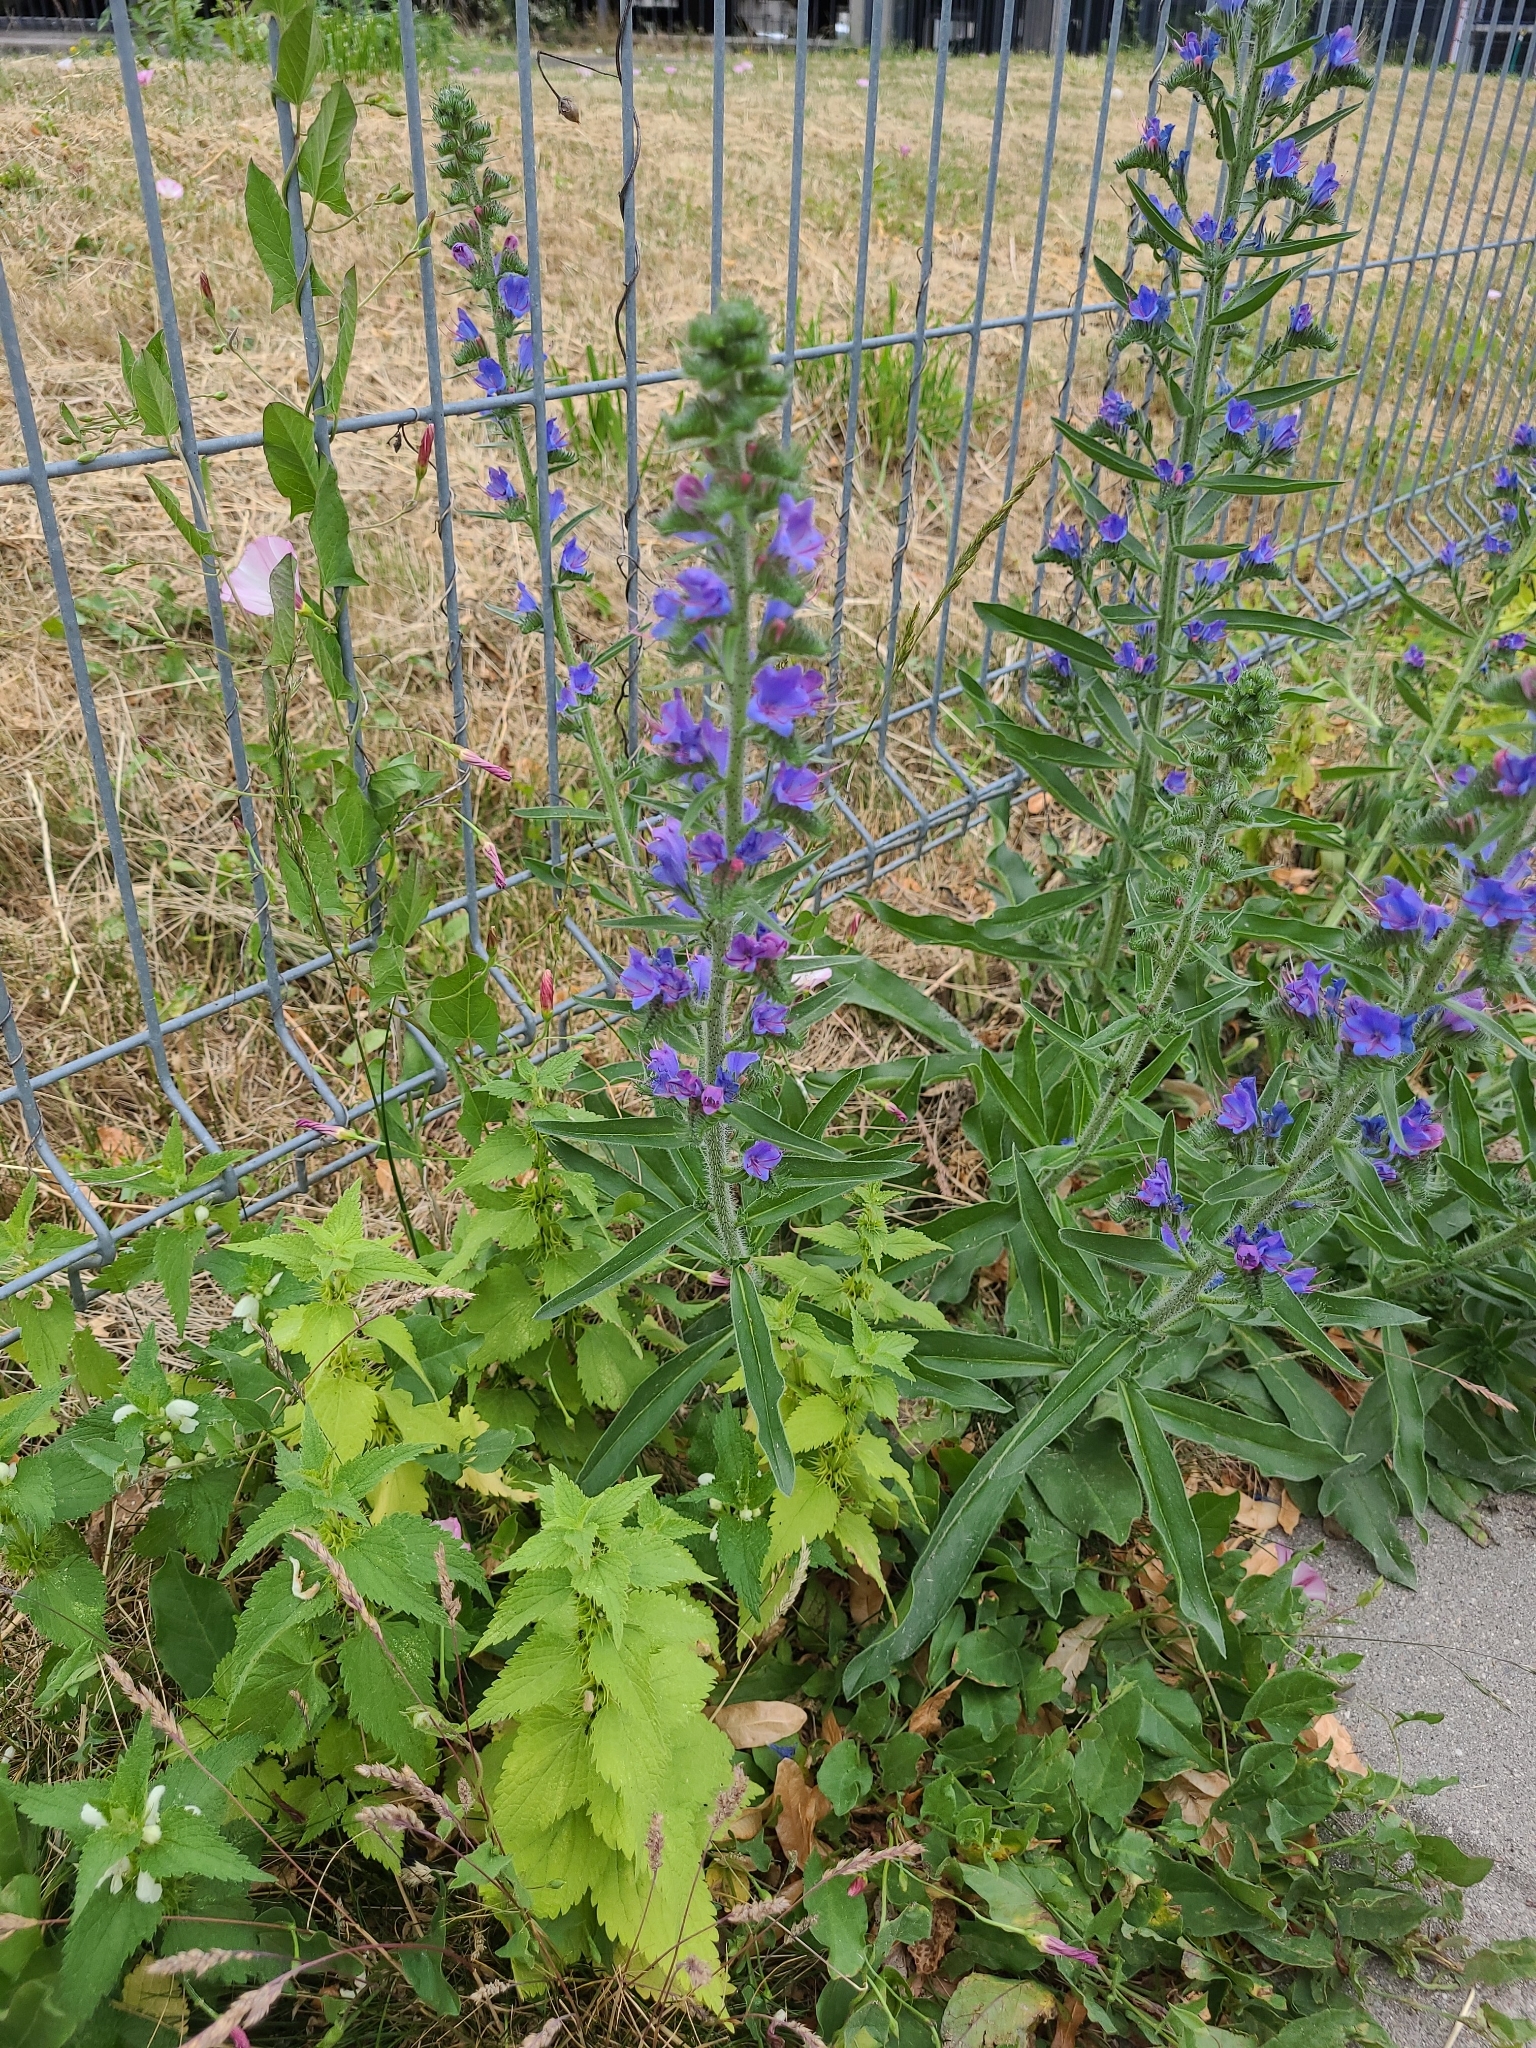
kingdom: Plantae
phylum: Tracheophyta
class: Magnoliopsida
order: Boraginales
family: Boraginaceae
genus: Echium
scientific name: Echium vulgare
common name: Common viper's bugloss
